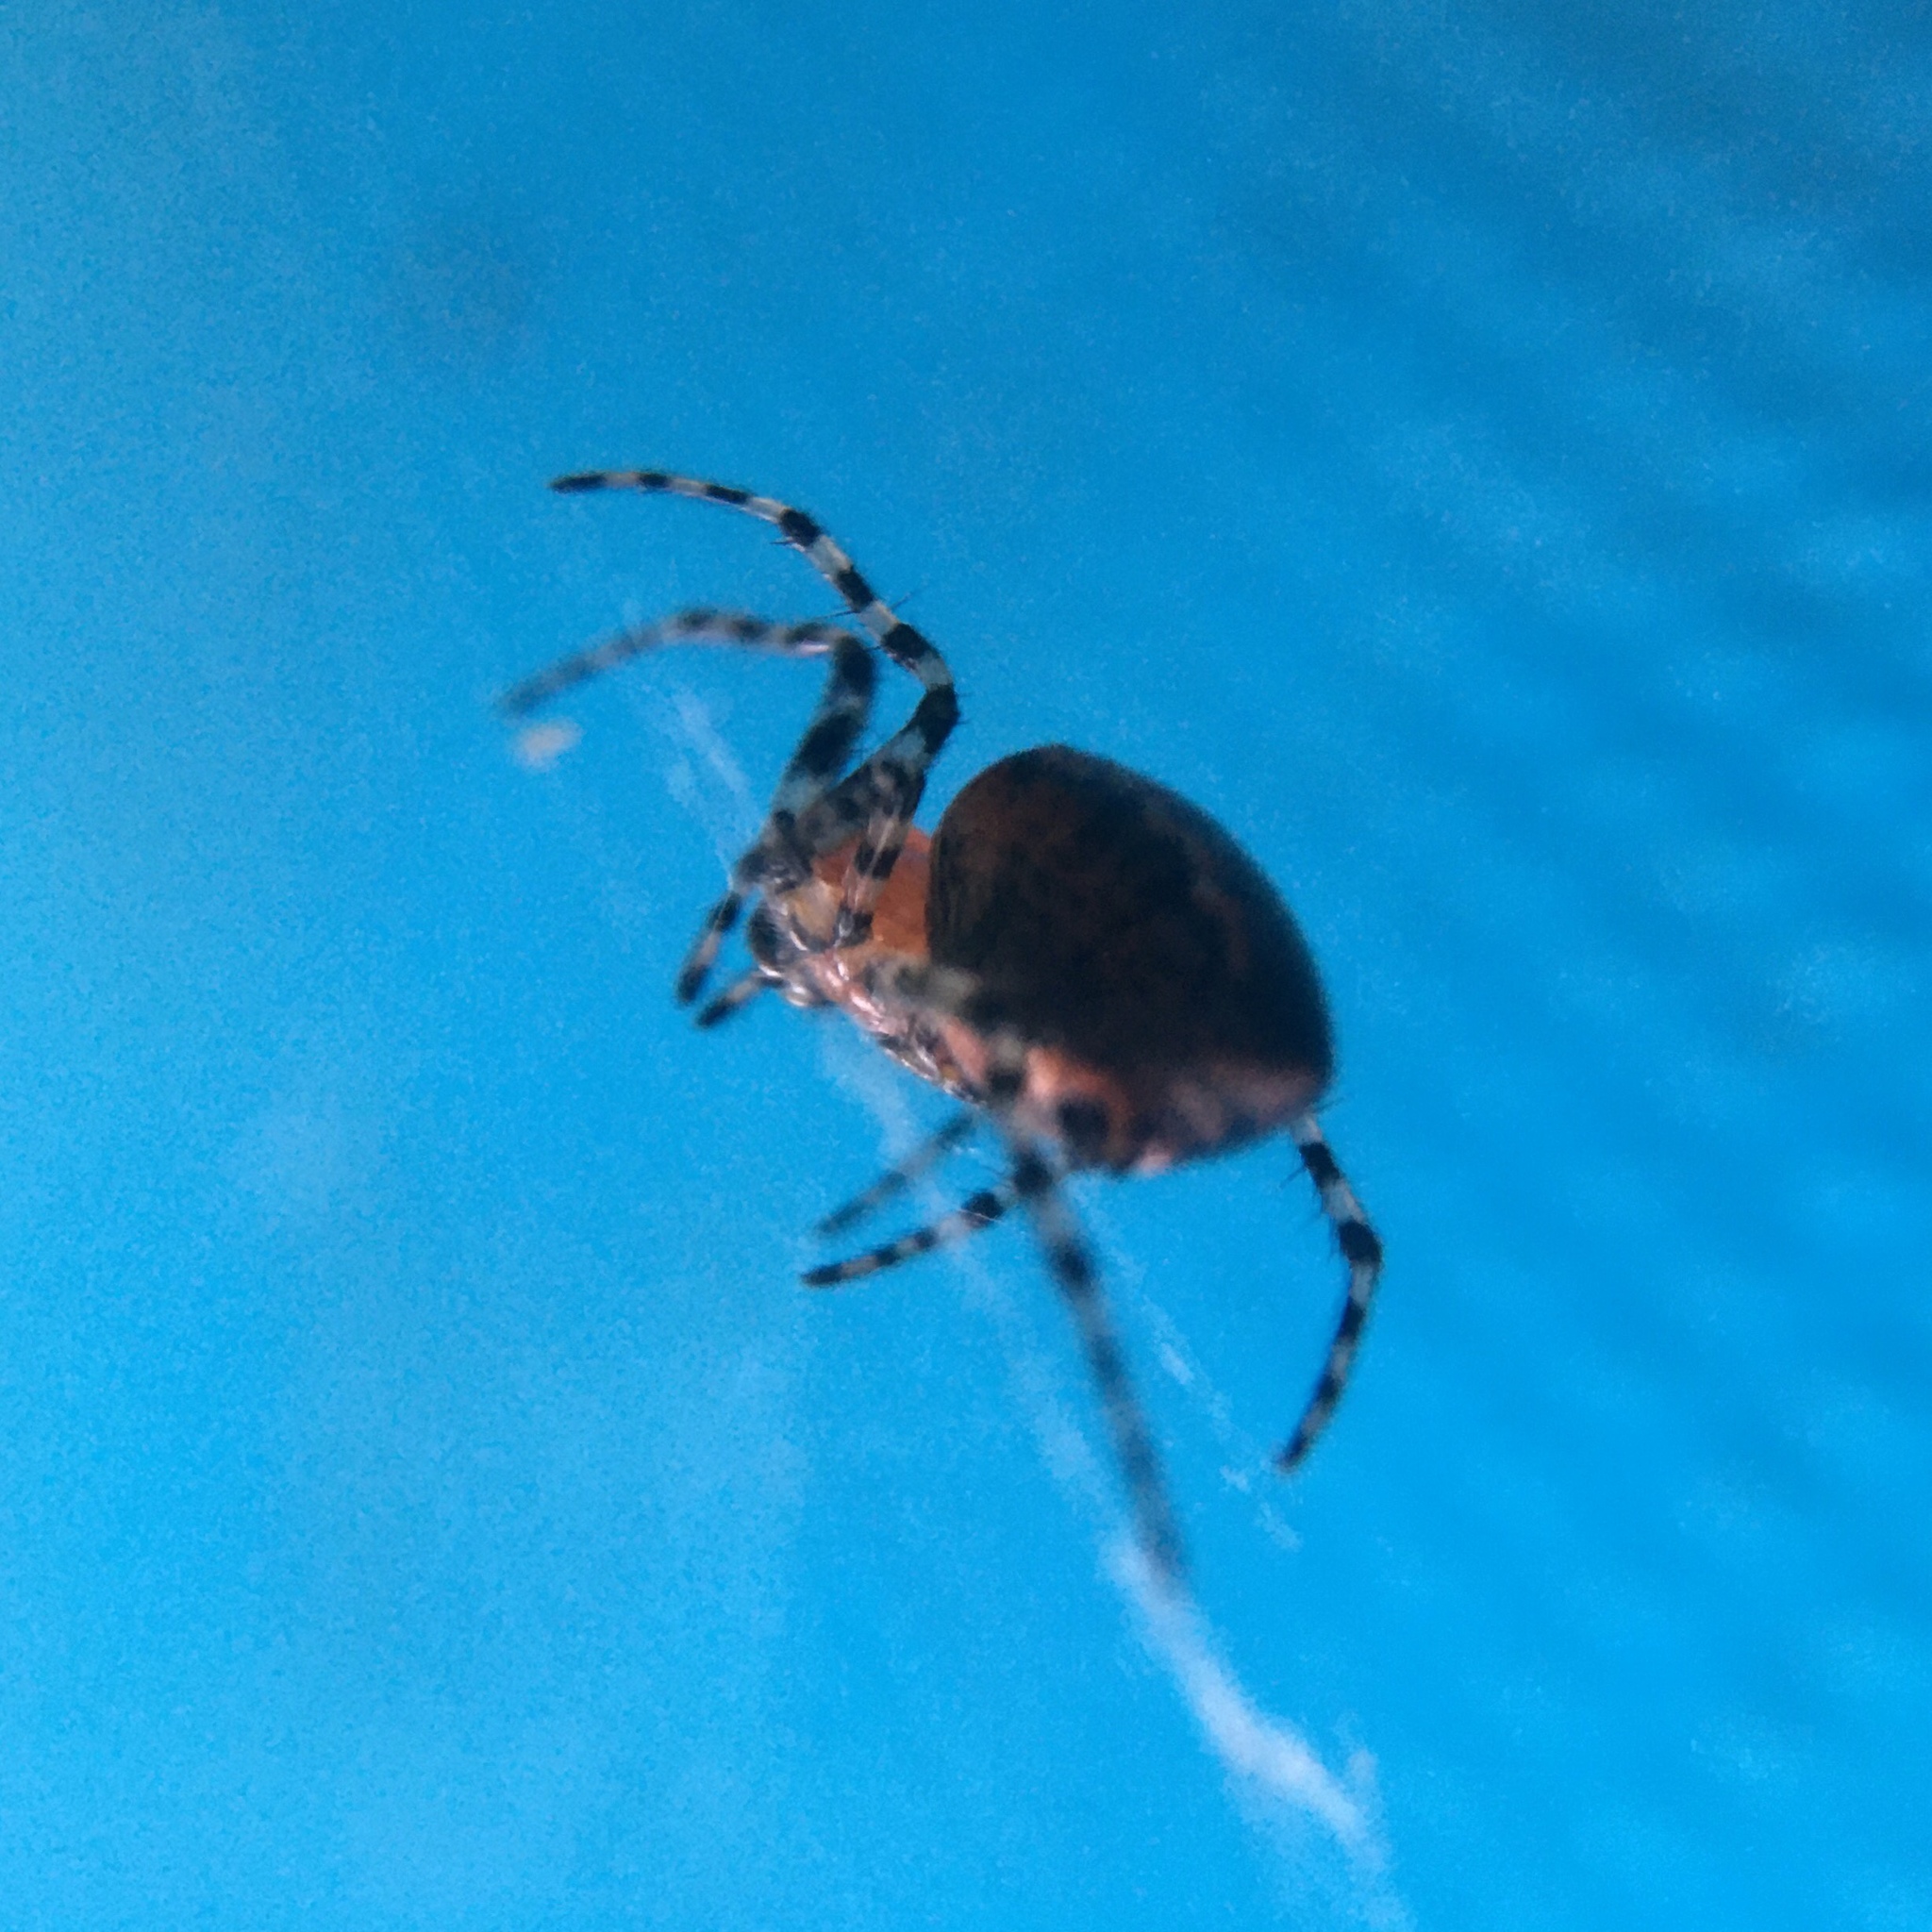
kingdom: Animalia
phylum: Arthropoda
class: Arachnida
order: Araneae
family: Araneidae
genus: Alpaida
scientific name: Alpaida gallardoi
